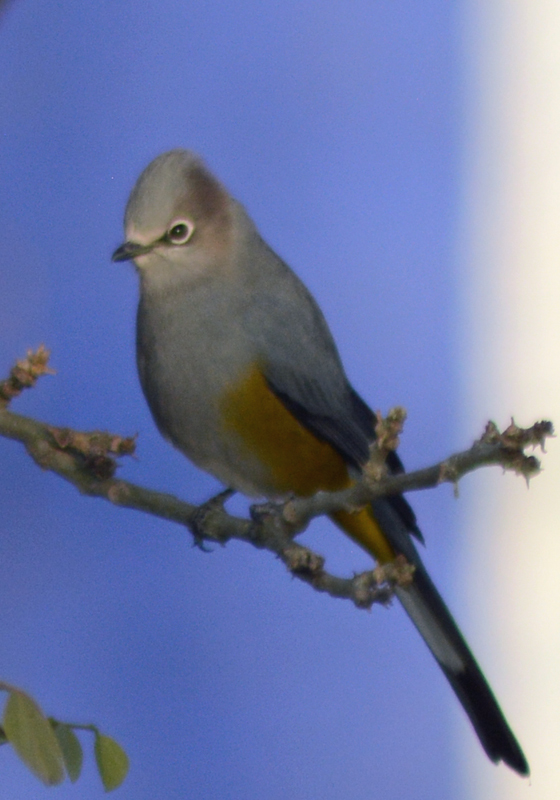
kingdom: Animalia
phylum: Chordata
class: Aves
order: Passeriformes
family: Ptilogonatidae
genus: Ptilogonys
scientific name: Ptilogonys cinereus
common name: Gray silky-flycatcher
